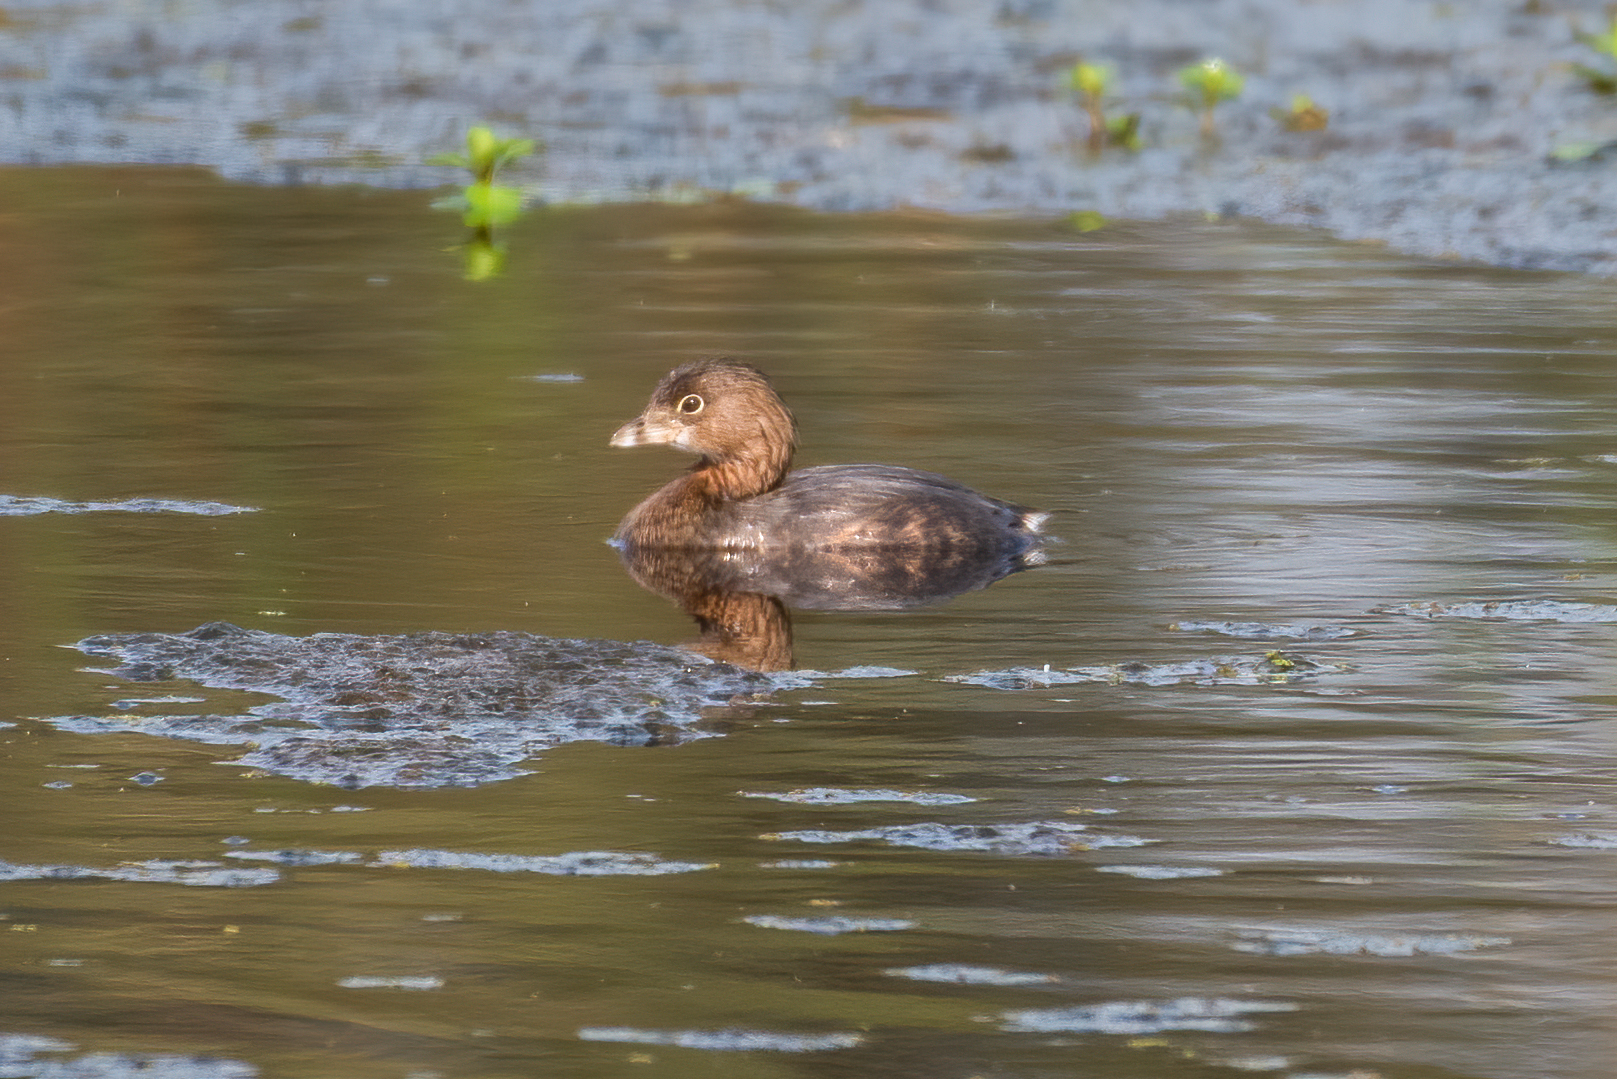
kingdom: Animalia
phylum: Chordata
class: Aves
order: Podicipediformes
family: Podicipedidae
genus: Podilymbus
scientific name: Podilymbus podiceps
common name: Pied-billed grebe
